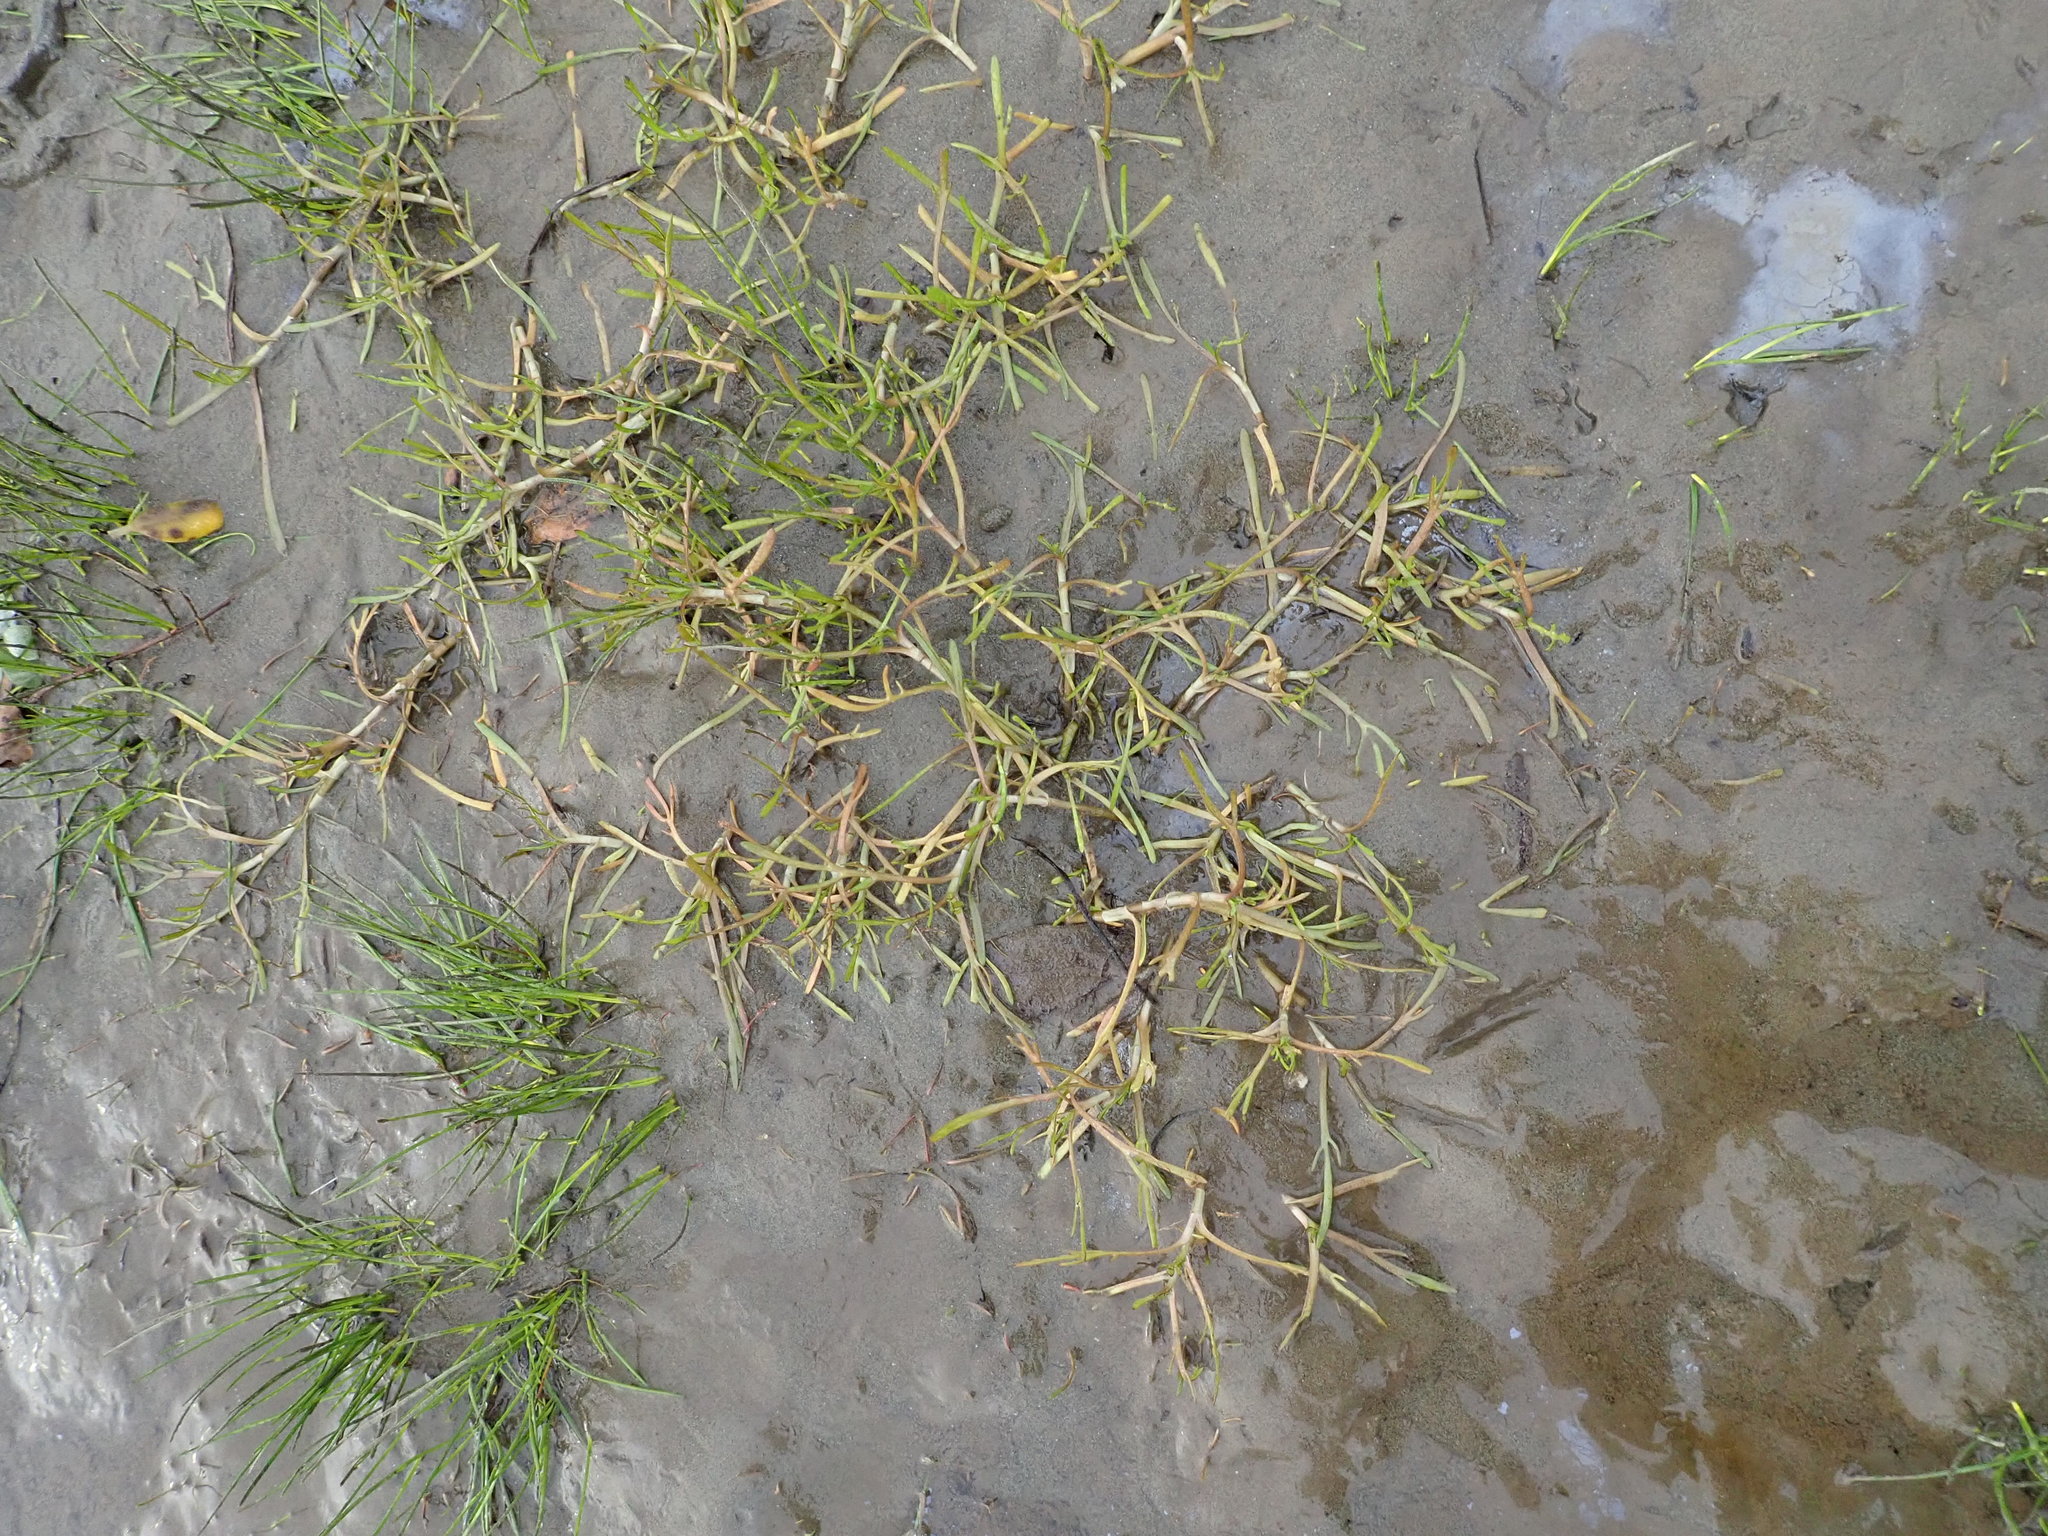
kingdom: Plantae
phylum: Tracheophyta
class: Magnoliopsida
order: Asterales
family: Asteraceae
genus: Cotula
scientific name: Cotula coronopifolia
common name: Buttonweed
